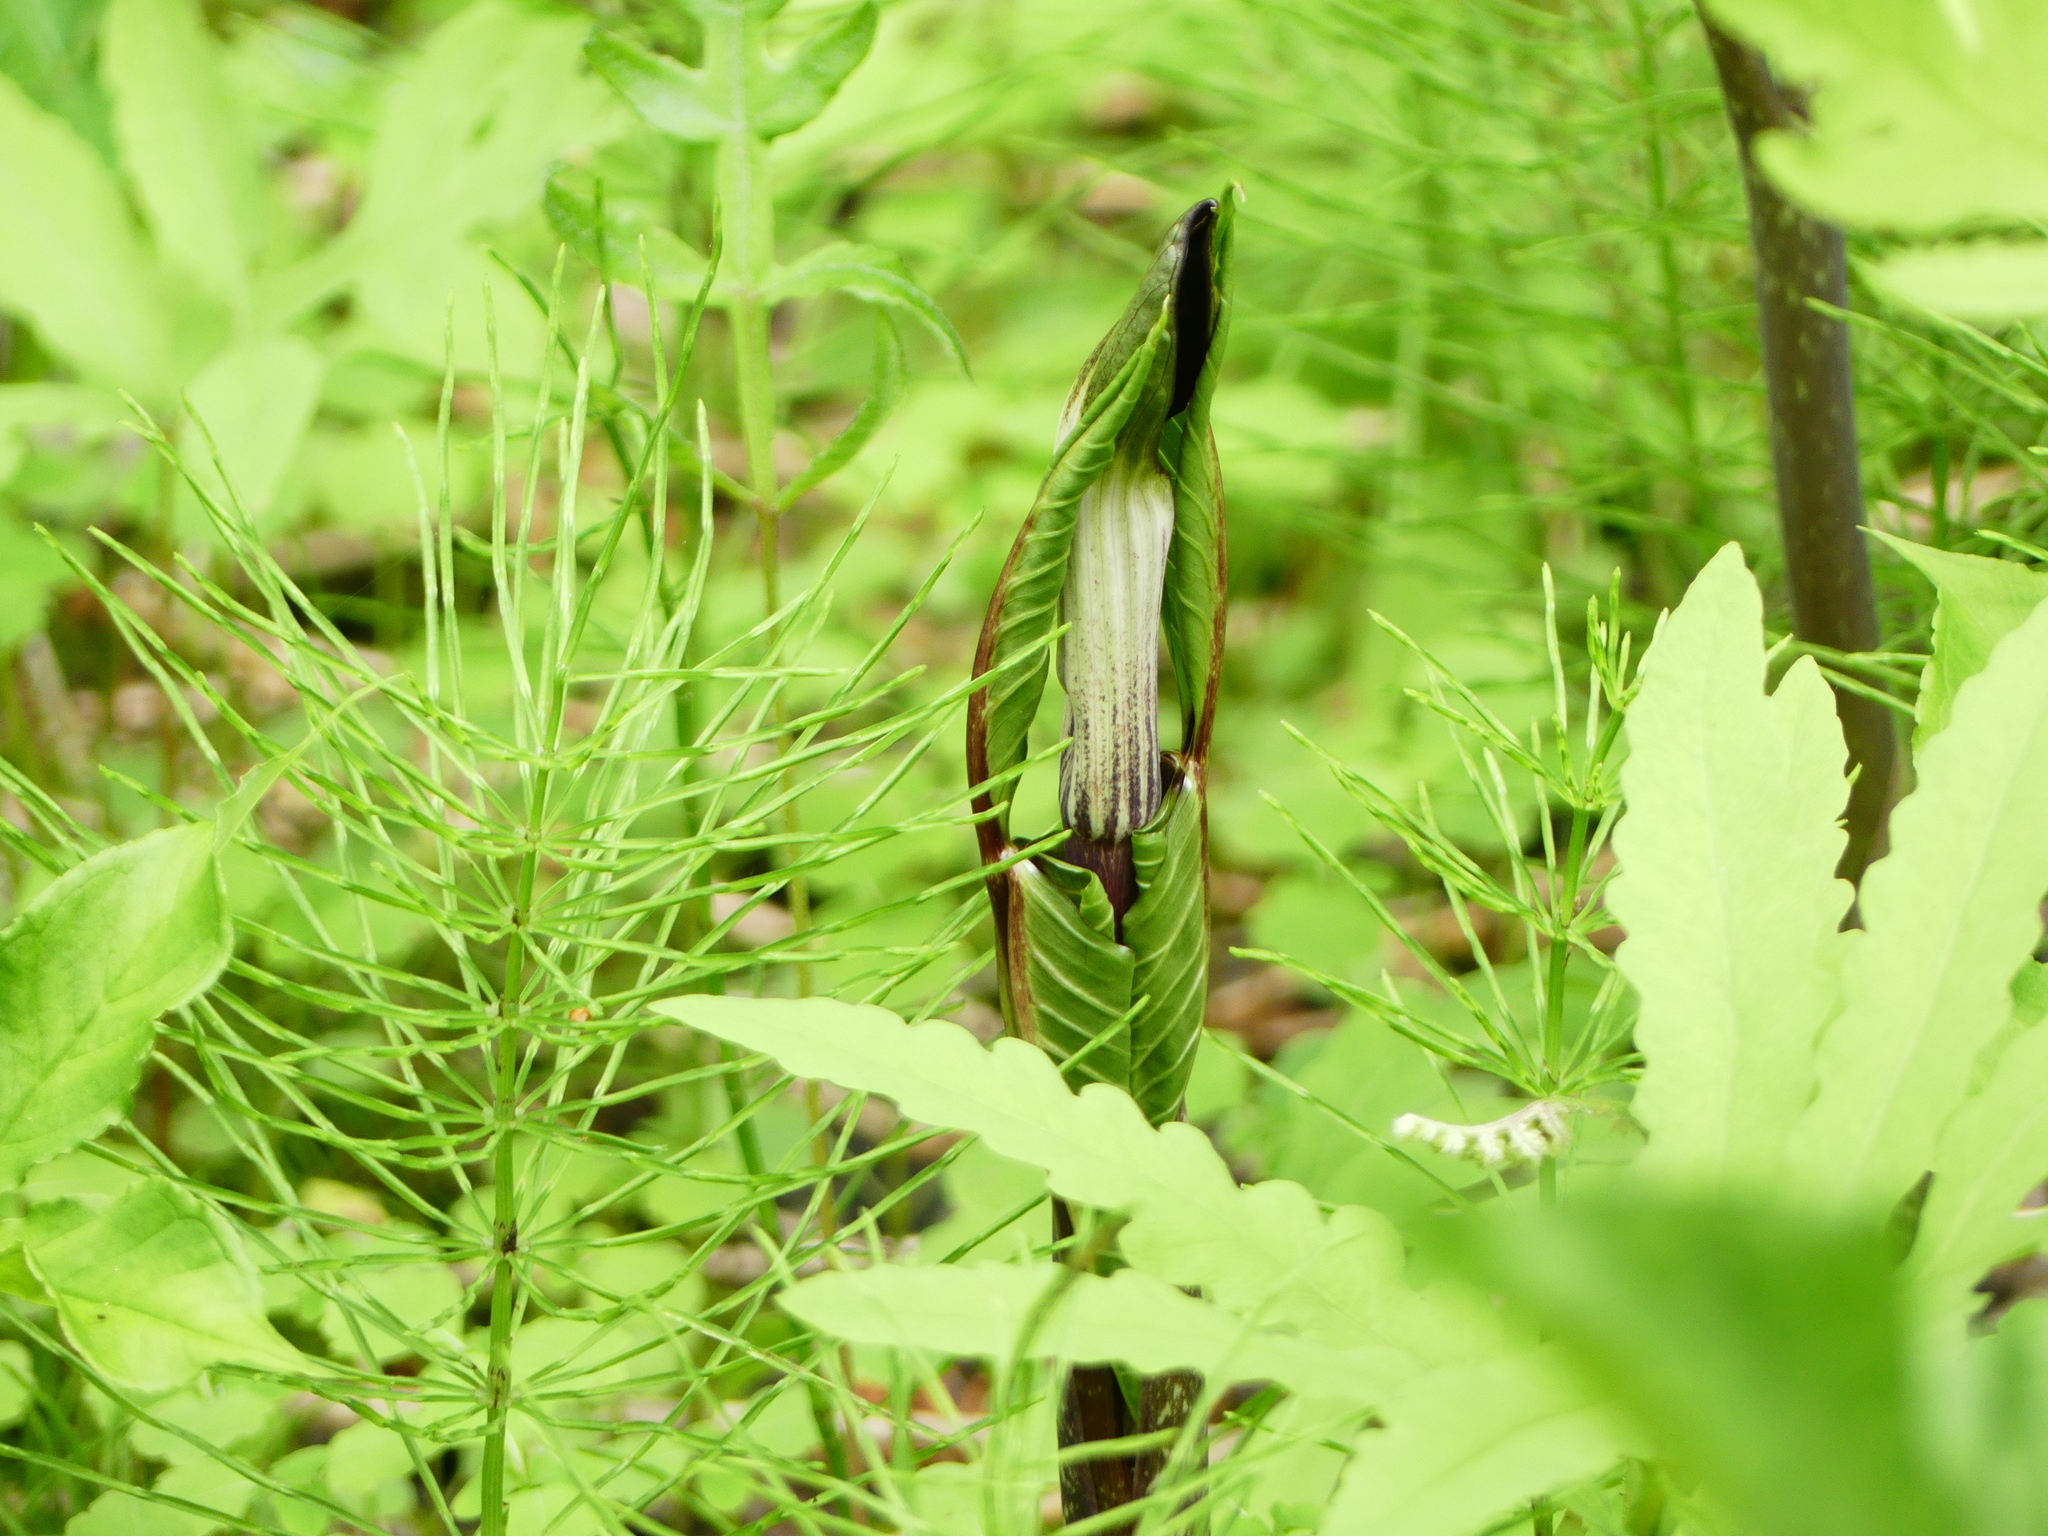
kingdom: Plantae
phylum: Tracheophyta
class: Liliopsida
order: Alismatales
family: Araceae
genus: Arisaema
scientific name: Arisaema triphyllum
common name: Jack-in-the-pulpit
